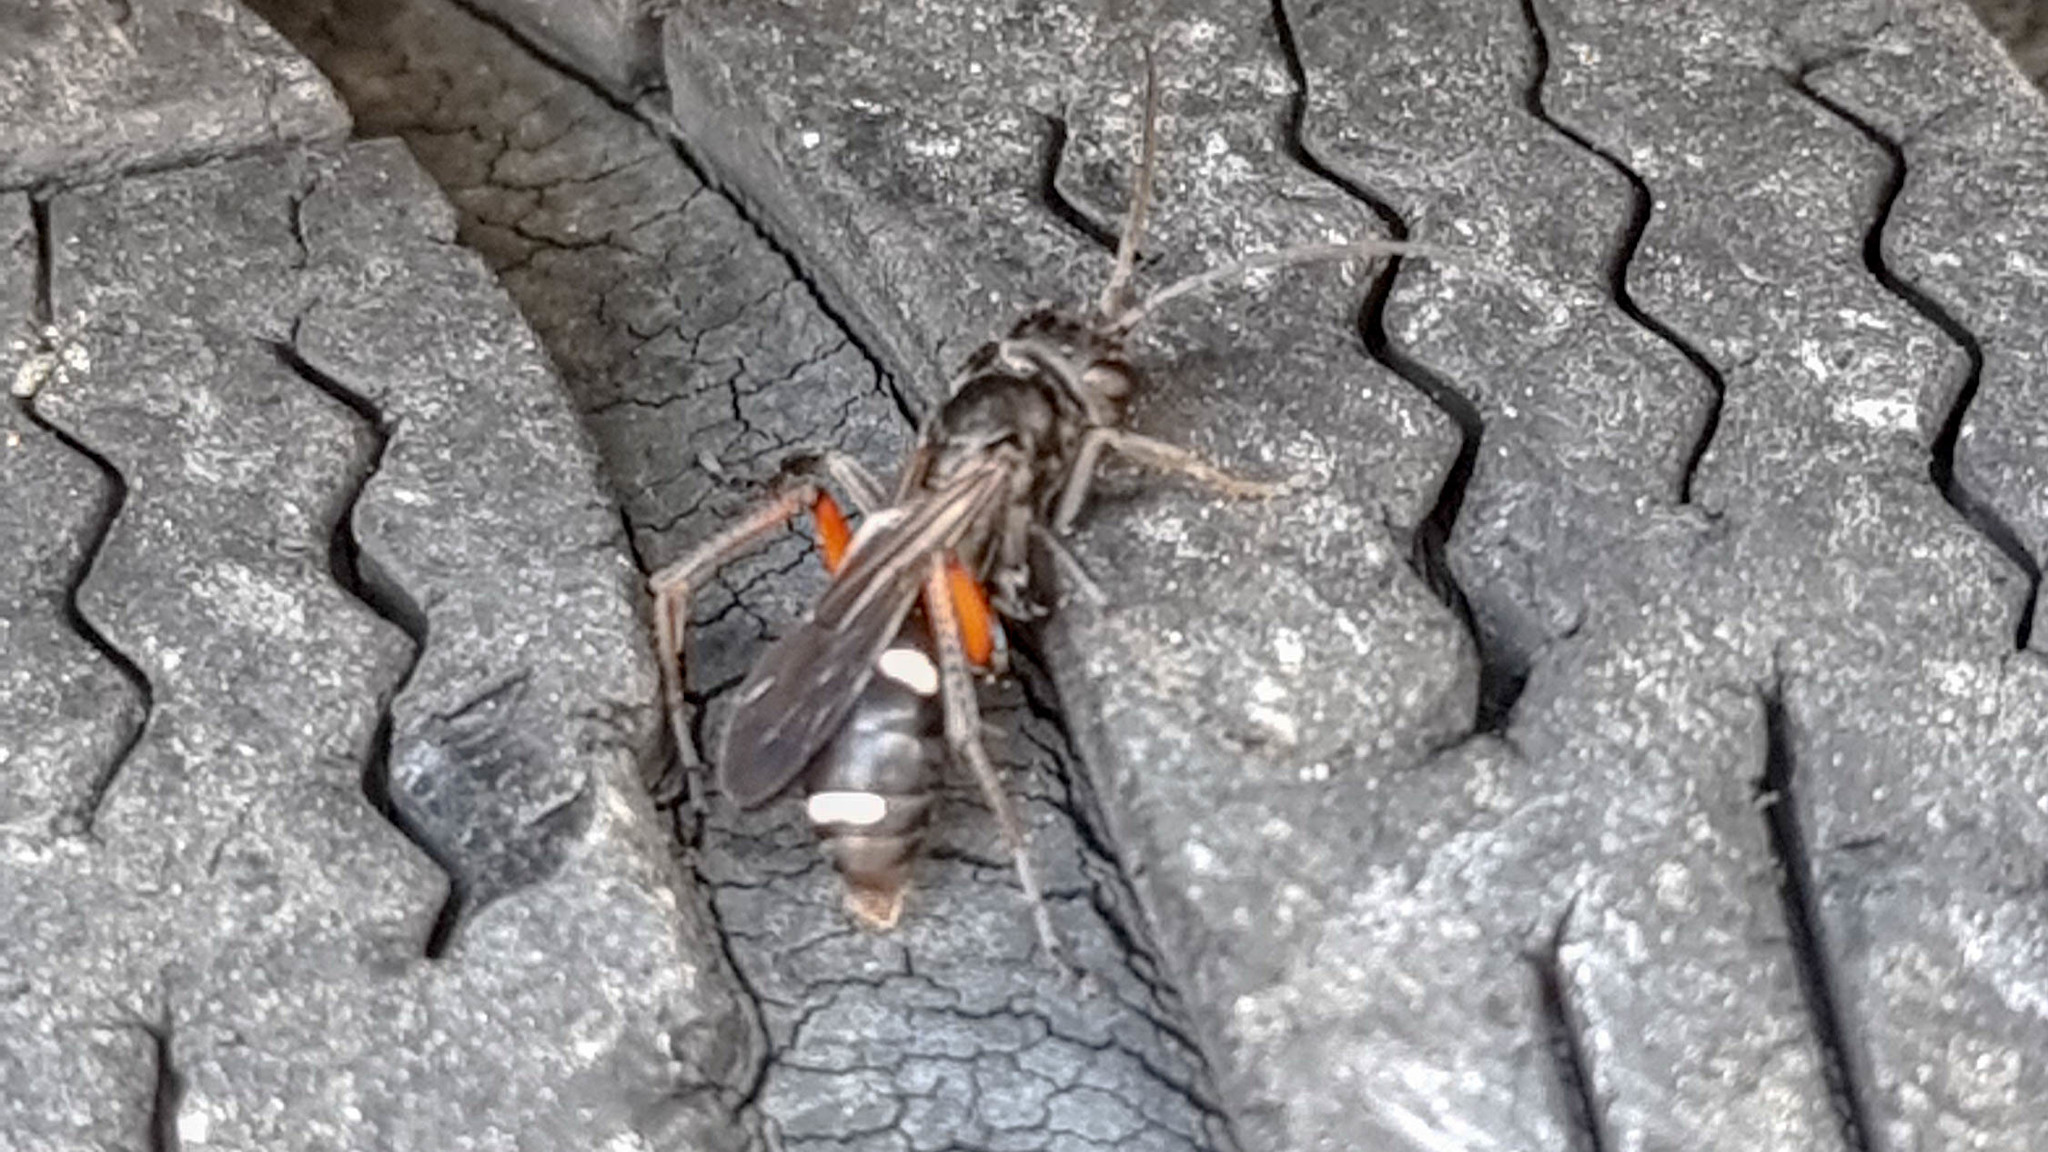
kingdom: Animalia
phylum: Arthropoda
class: Insecta
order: Hymenoptera
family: Pompilidae
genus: Cryptocheilus
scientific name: Cryptocheilus versicolor
